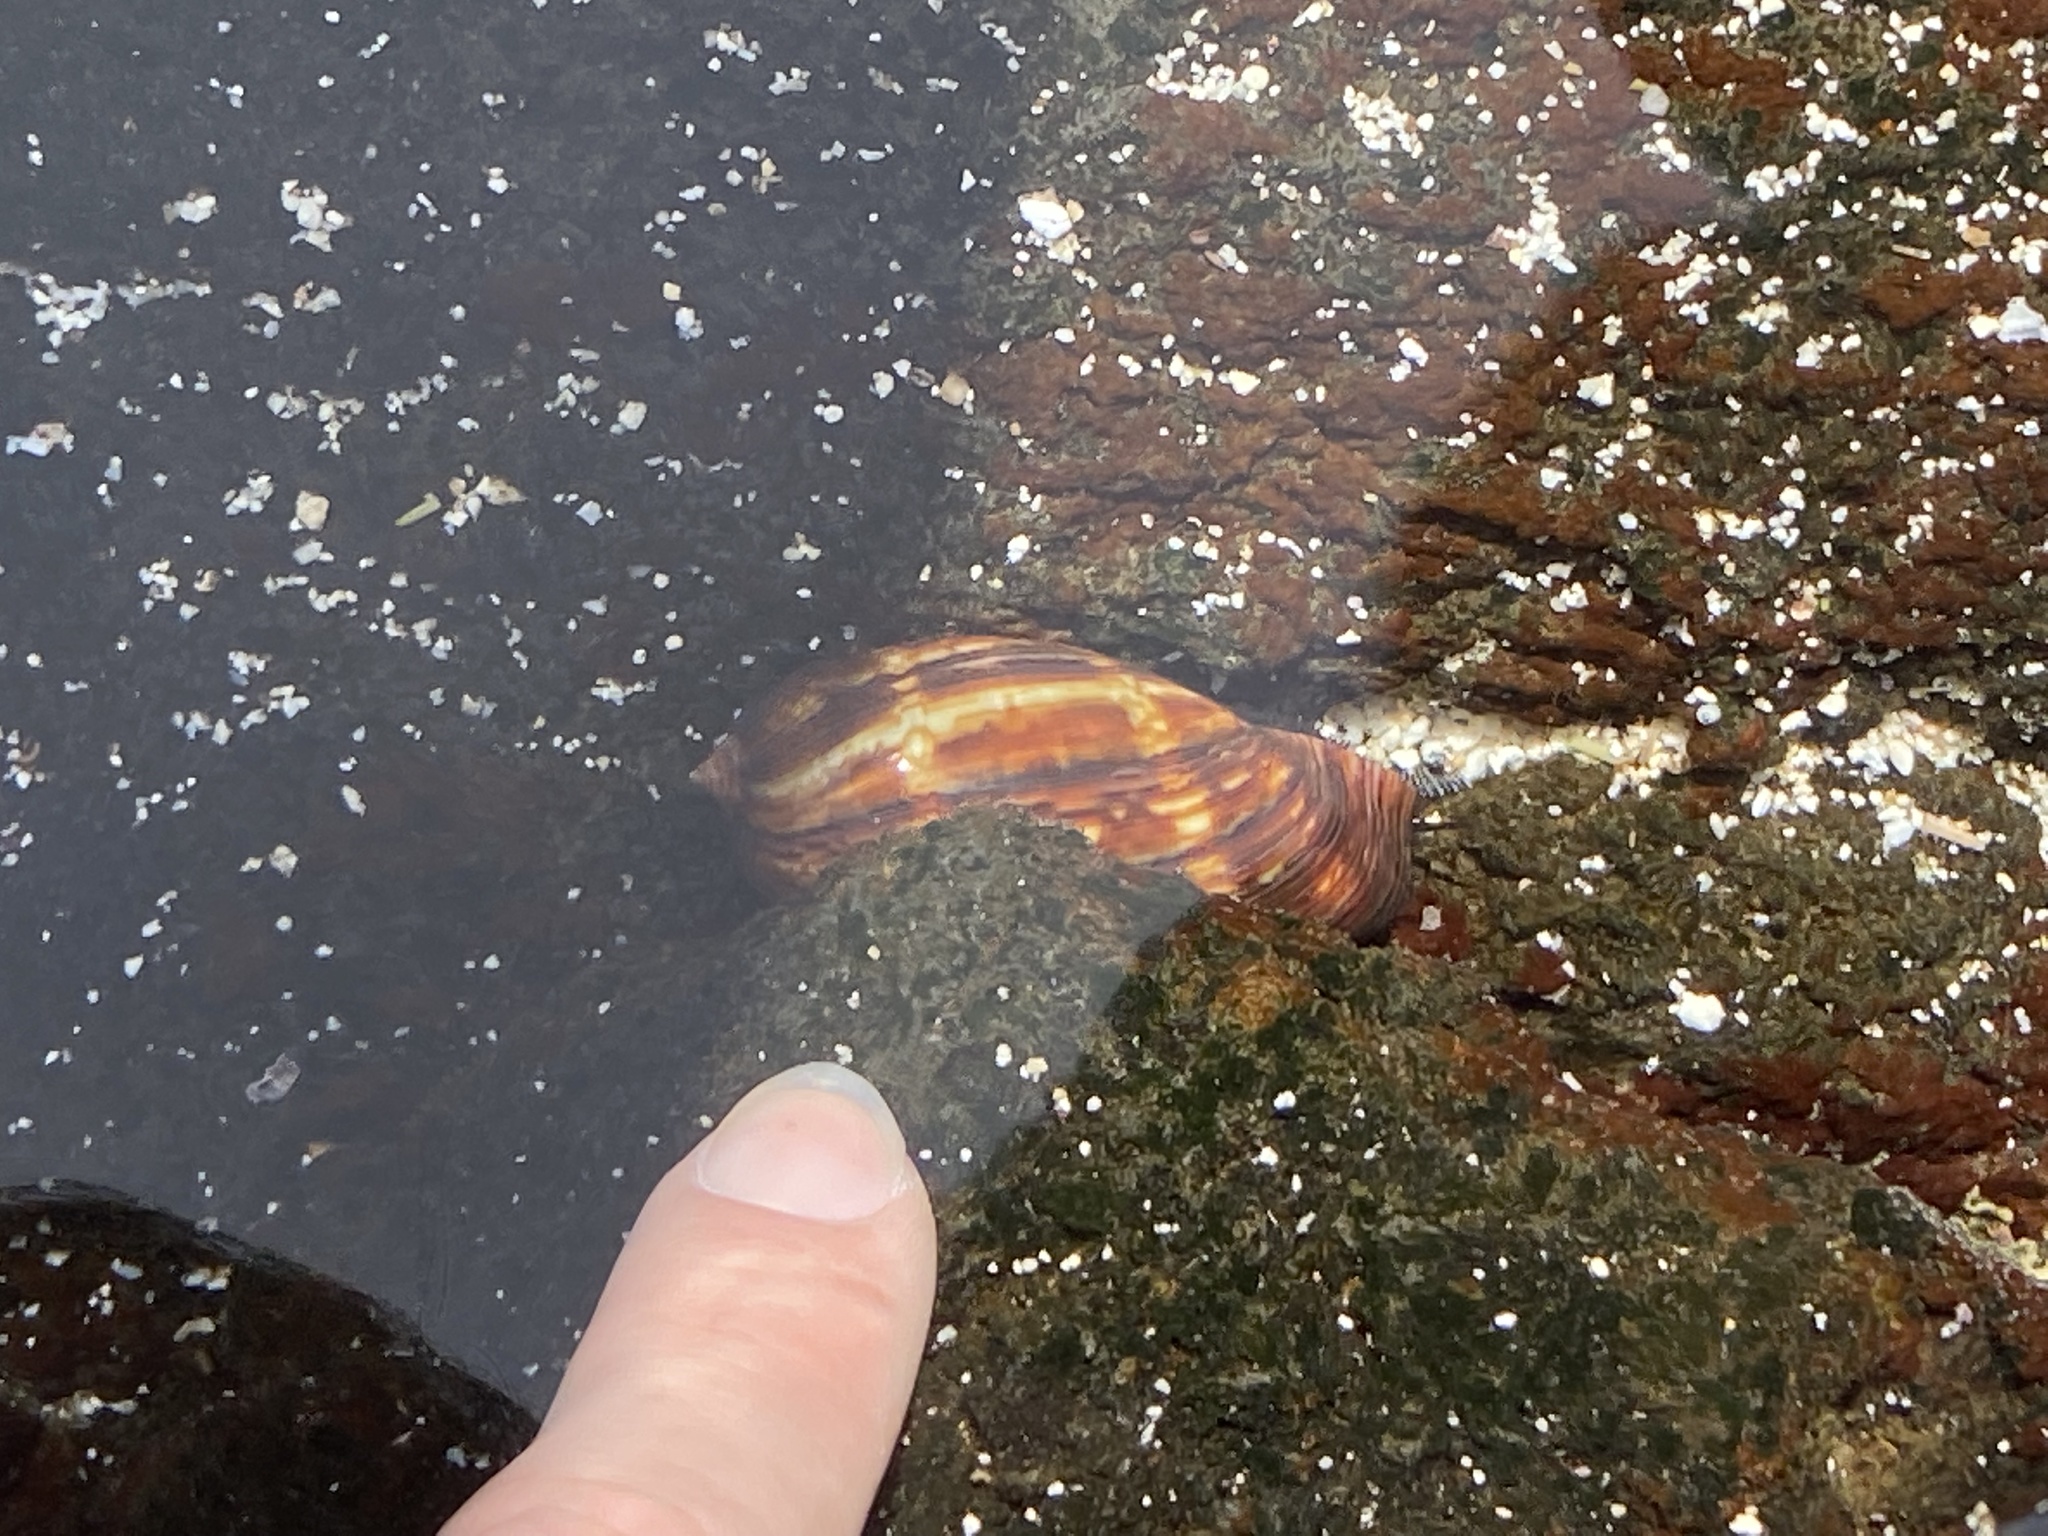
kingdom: Animalia
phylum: Mollusca
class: Gastropoda
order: Littorinimorpha
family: Cypraeidae
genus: Mauritia
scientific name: Mauritia mauritiana
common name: Hump-backed cowrie
